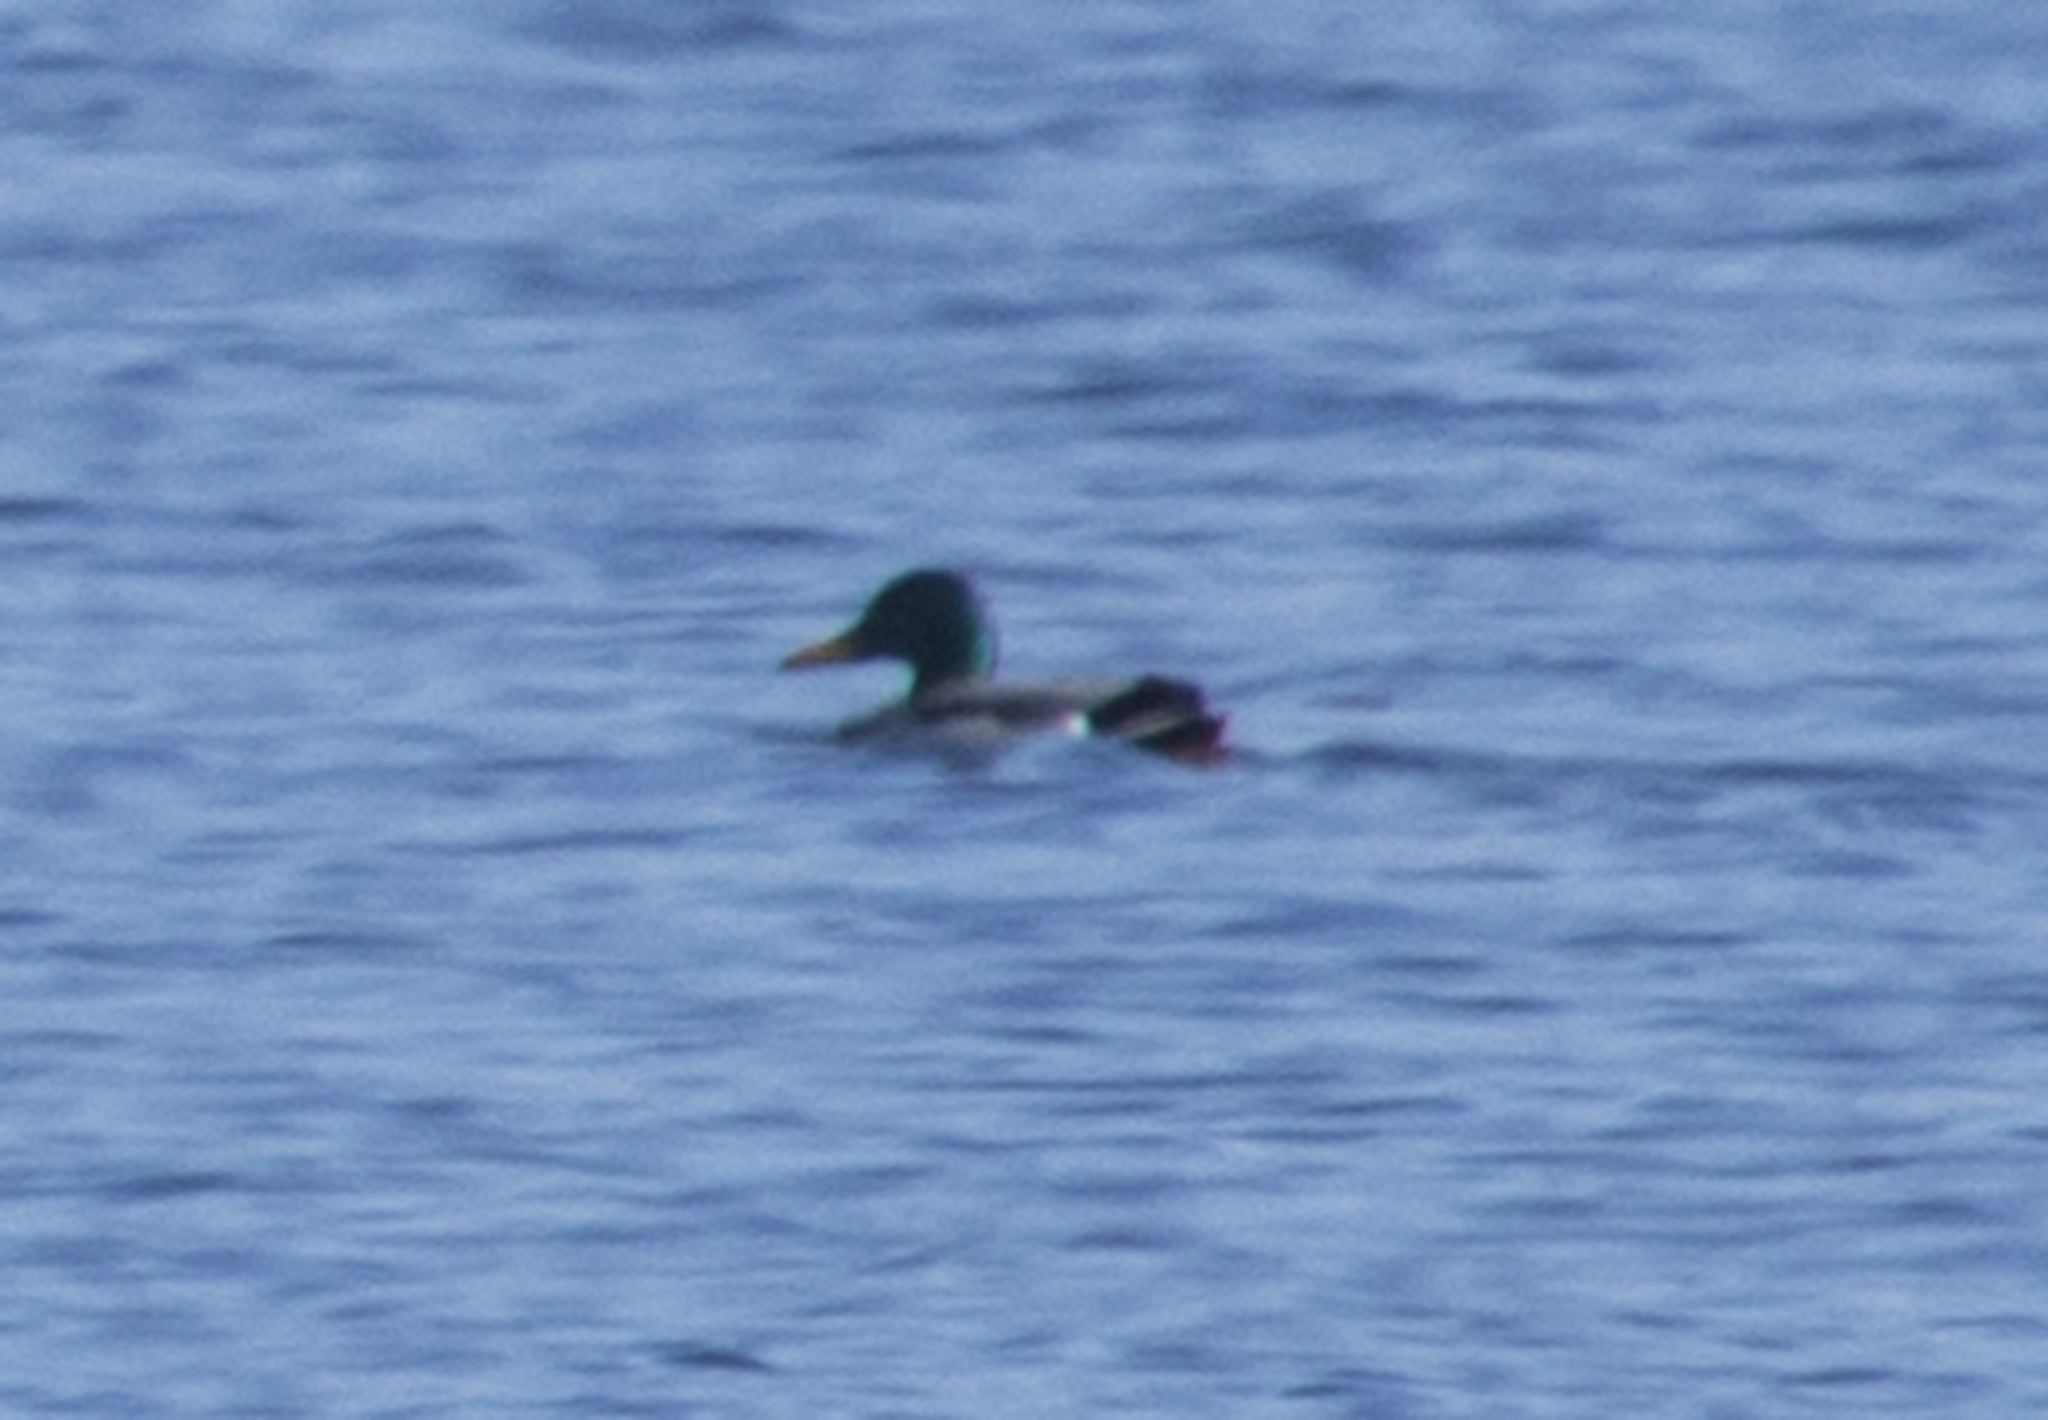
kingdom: Animalia
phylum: Chordata
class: Aves
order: Anseriformes
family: Anatidae
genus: Anas
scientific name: Anas platyrhynchos
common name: Mallard
